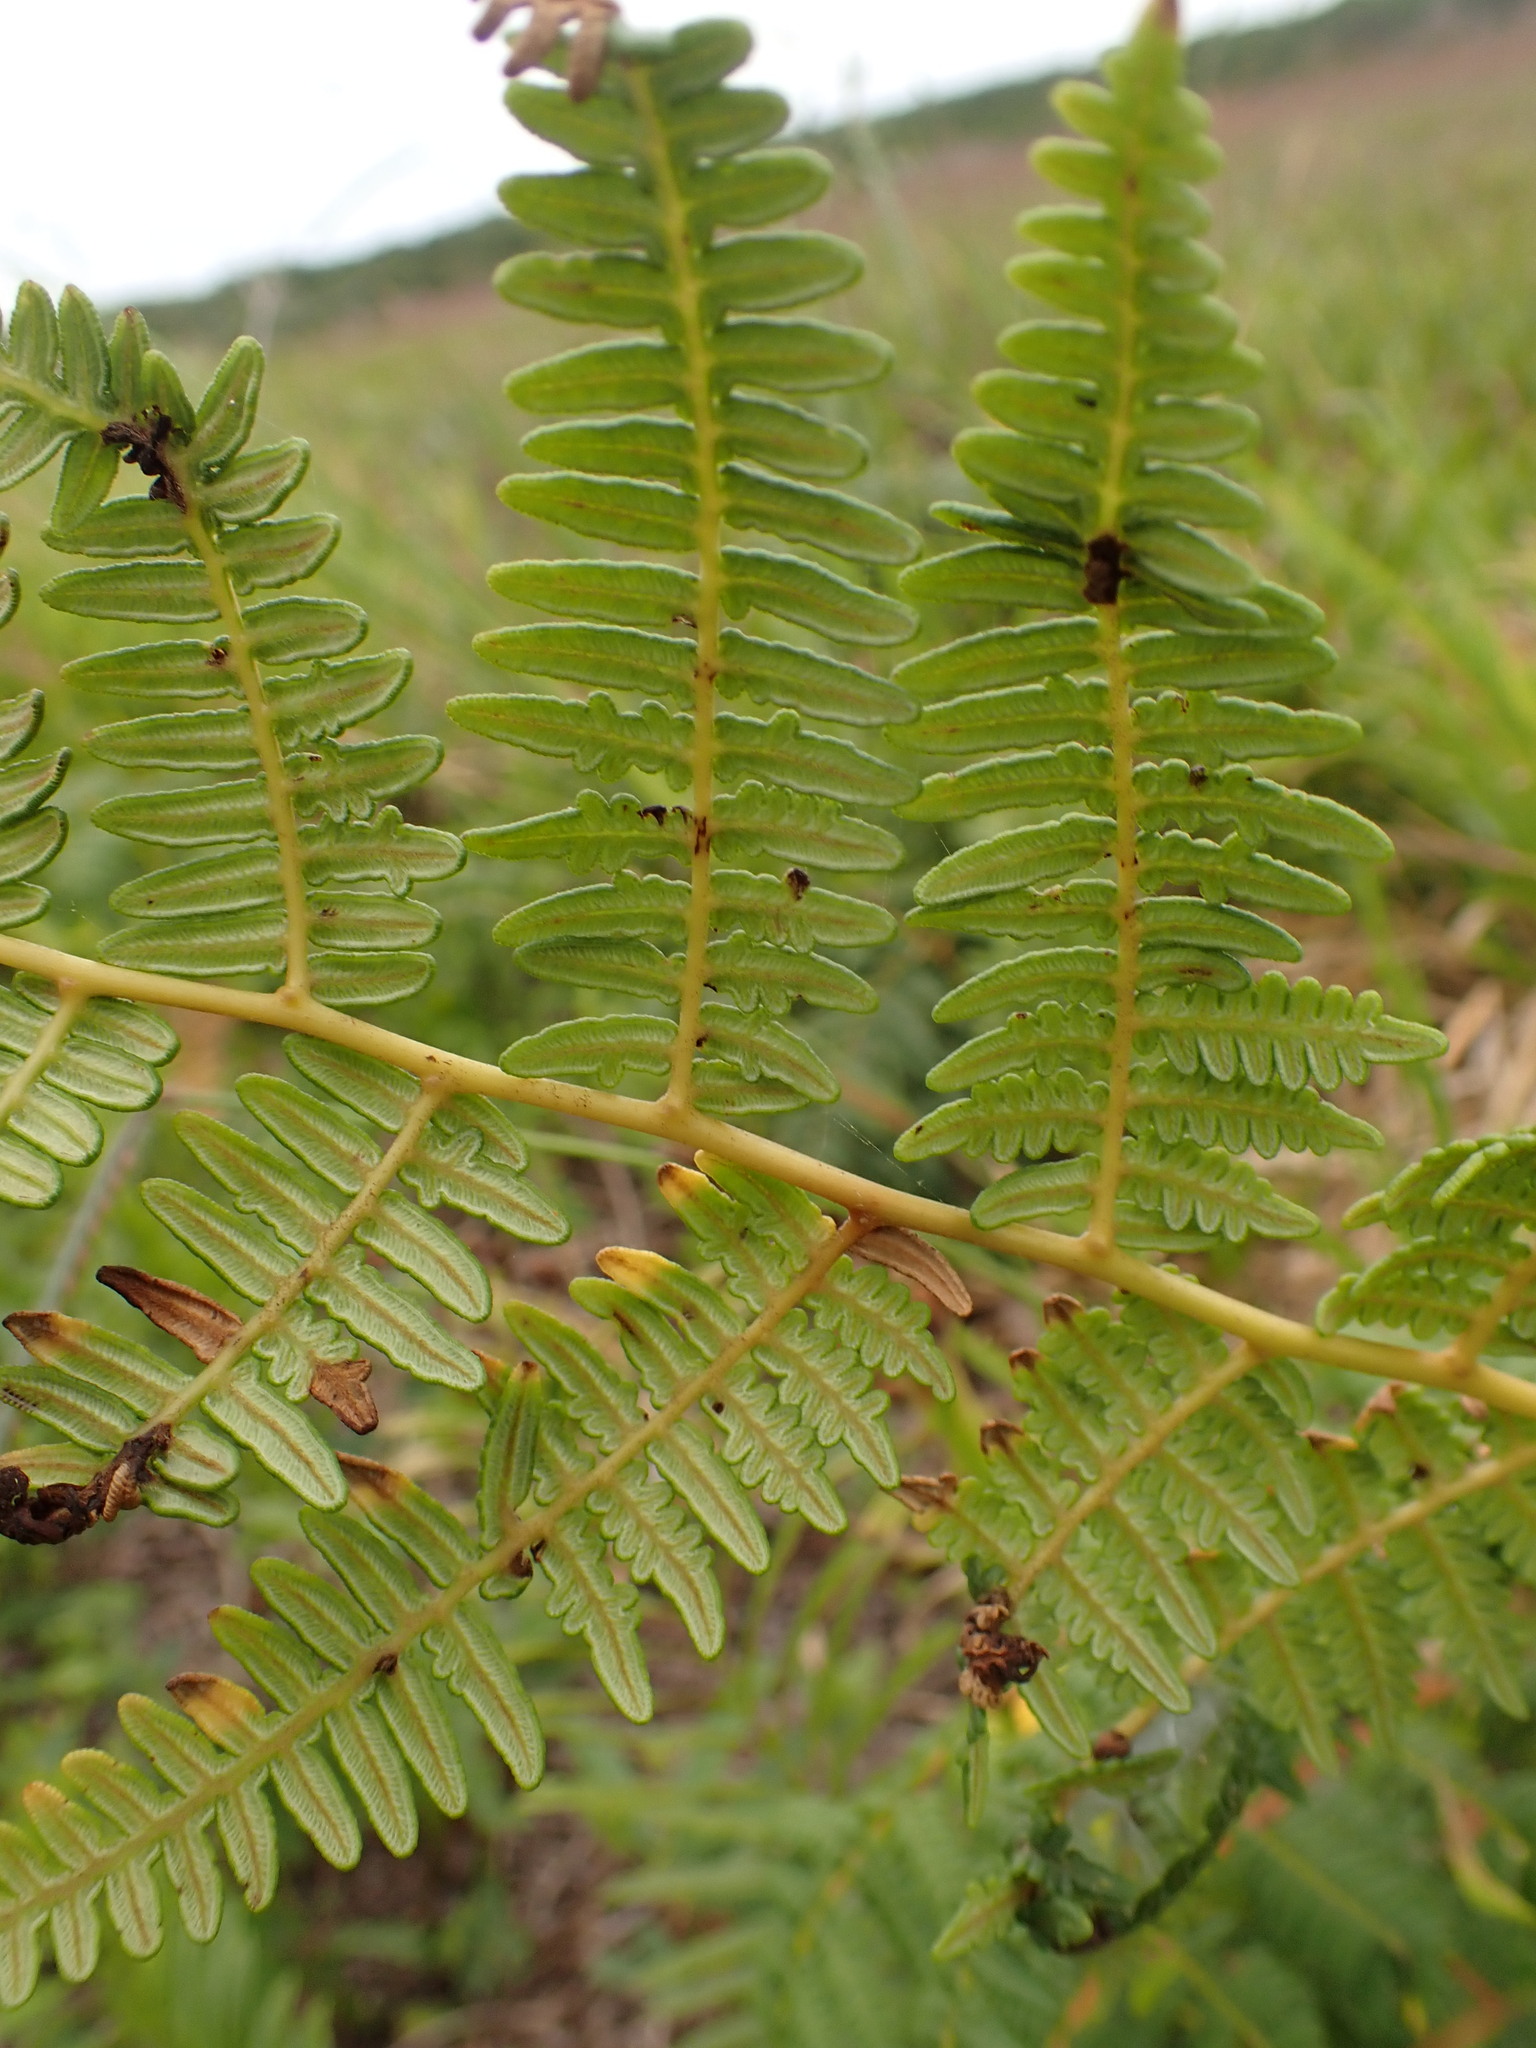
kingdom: Plantae
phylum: Tracheophyta
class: Polypodiopsida
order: Polypodiales
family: Dennstaedtiaceae
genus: Pteridium
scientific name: Pteridium esculentum
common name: Bracken fern
